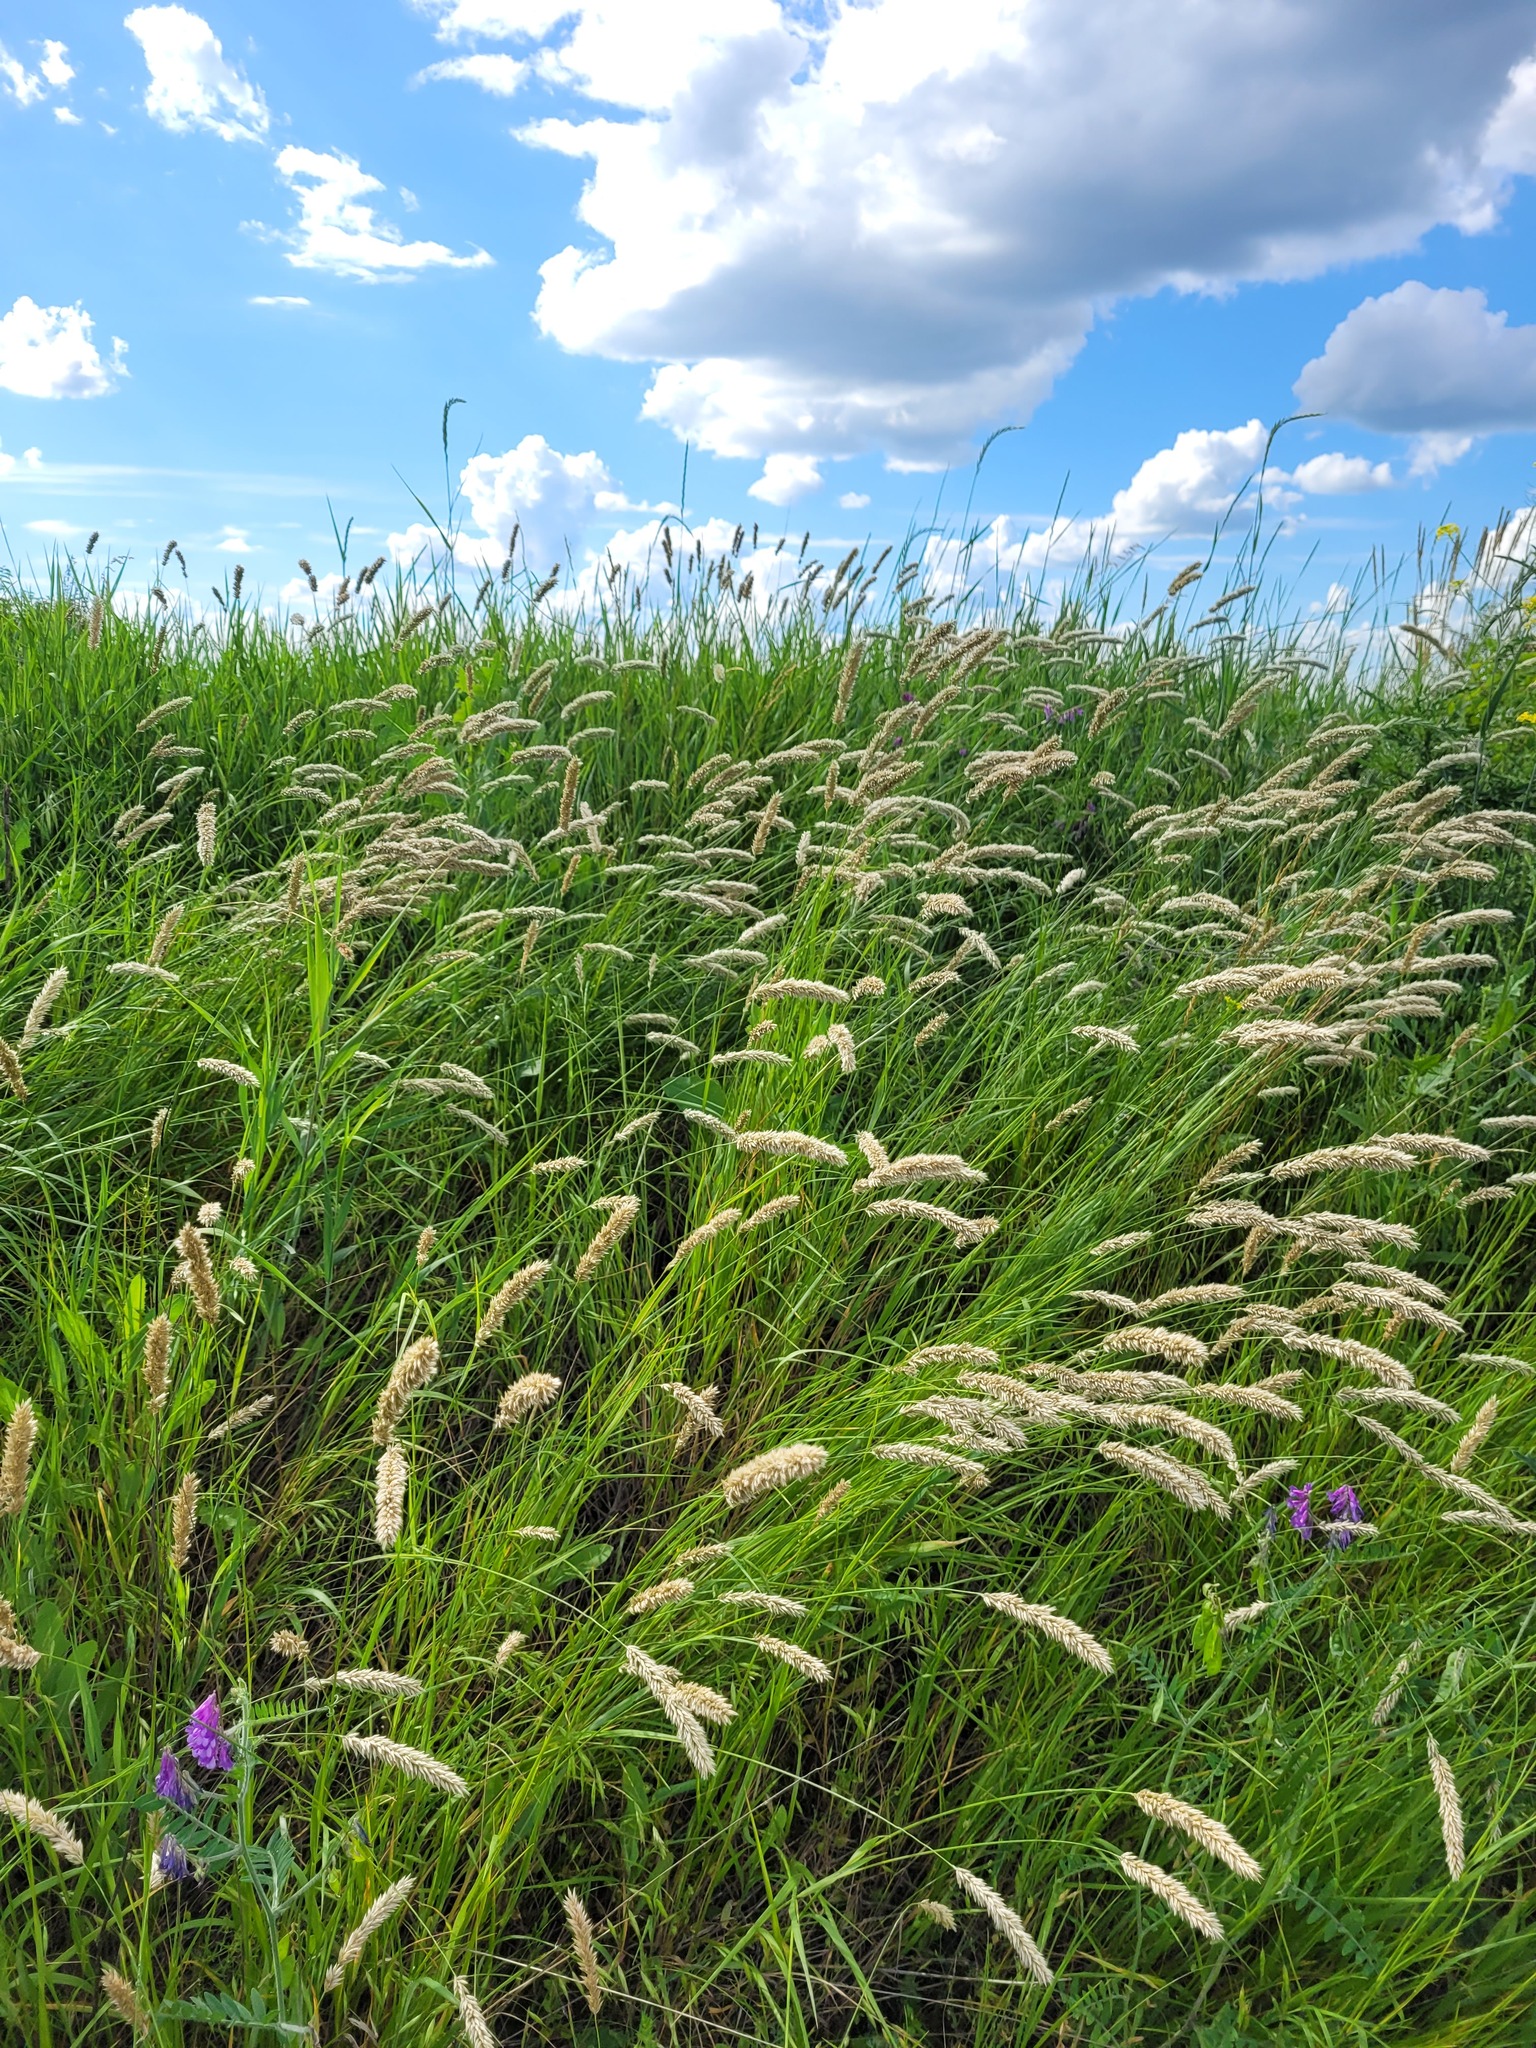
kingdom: Plantae
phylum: Tracheophyta
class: Liliopsida
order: Poales
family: Poaceae
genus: Melica
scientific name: Melica transsilvanica
